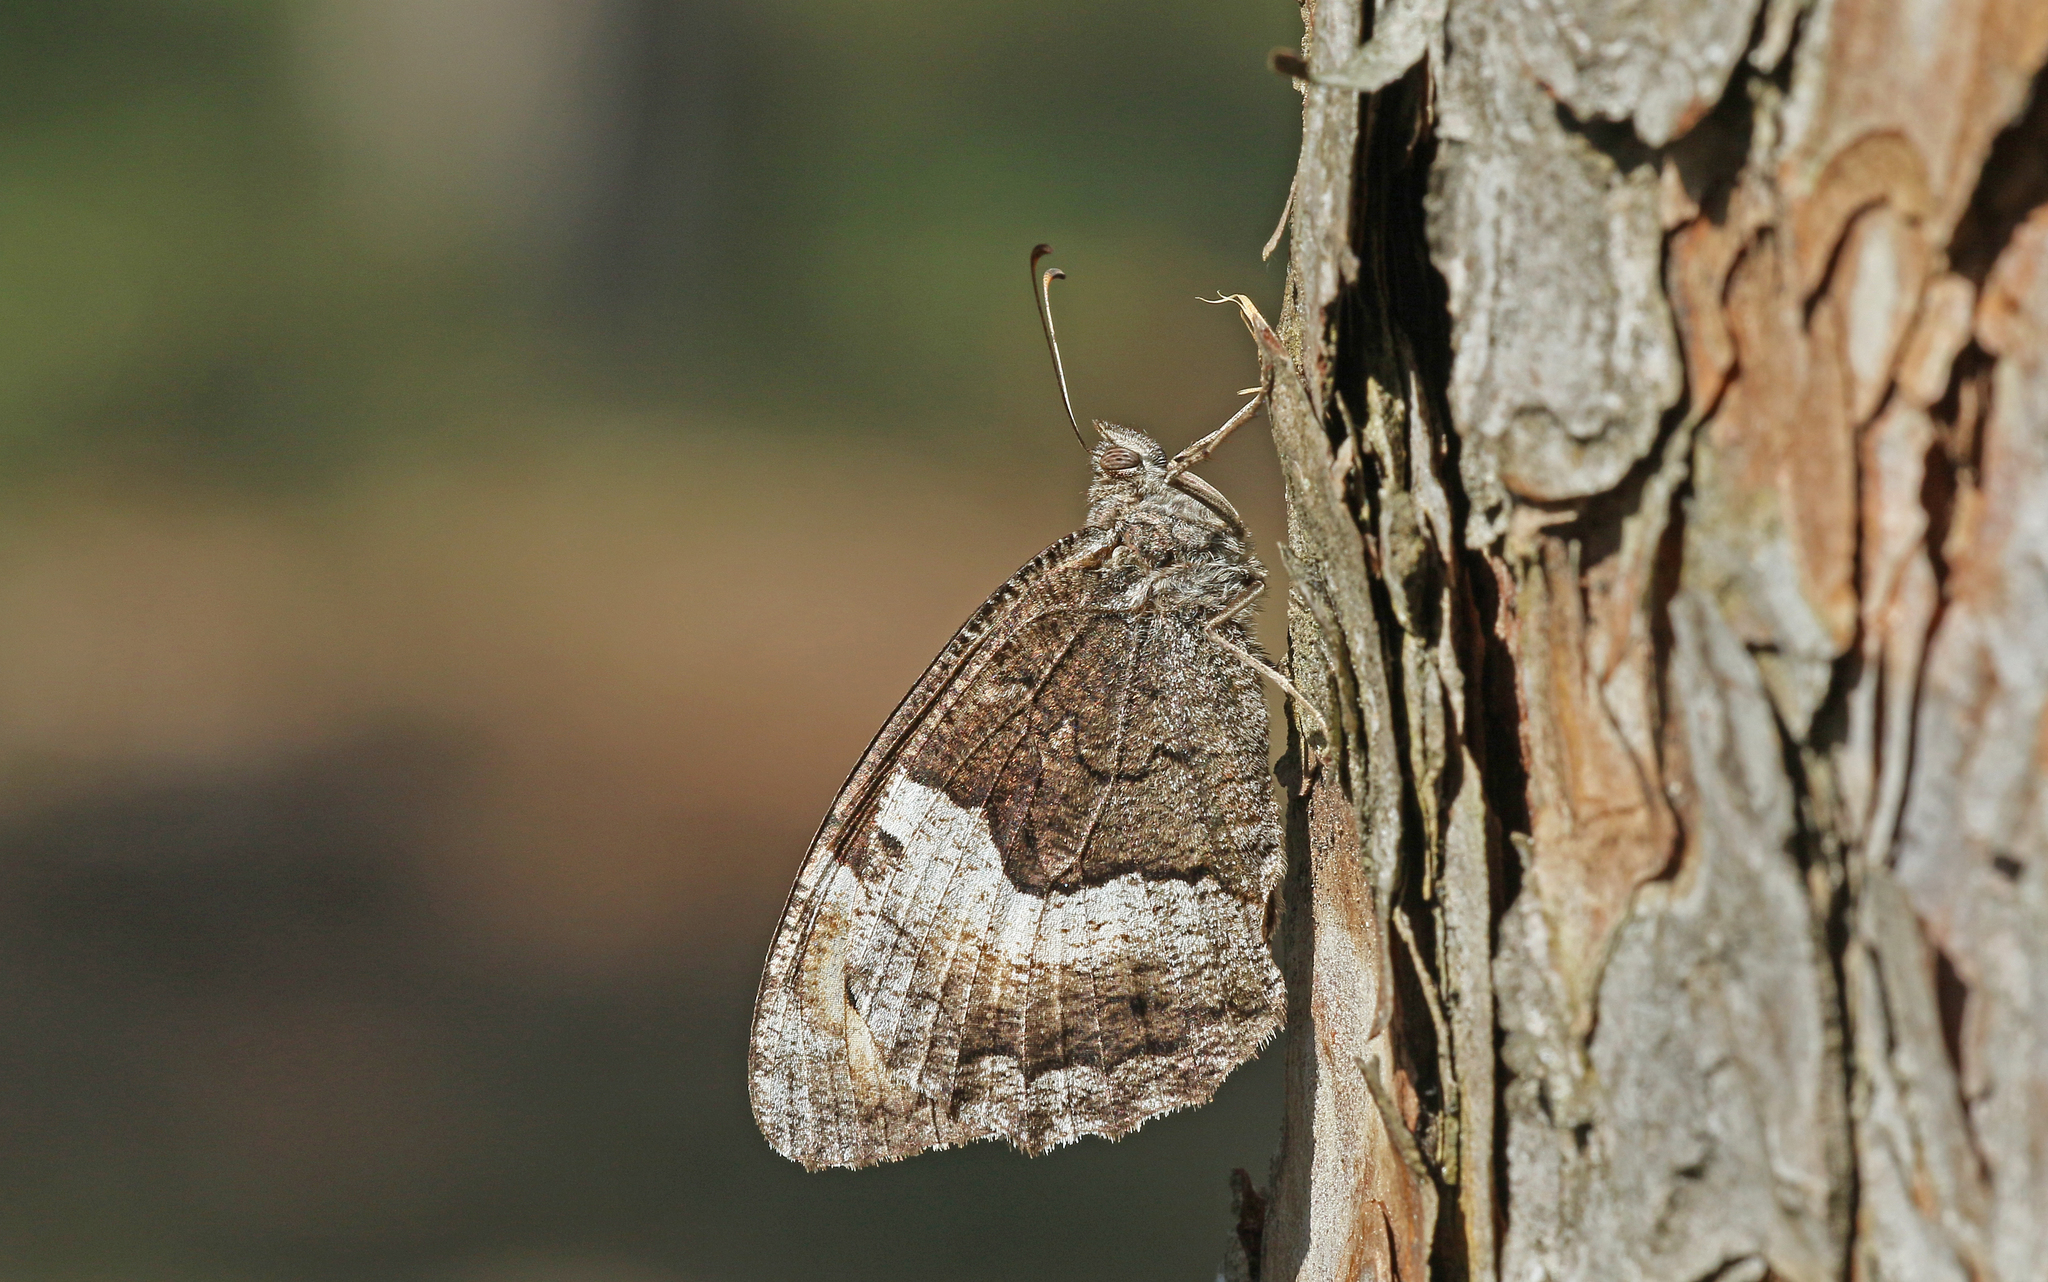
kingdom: Animalia
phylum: Arthropoda
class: Insecta
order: Lepidoptera
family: Nymphalidae
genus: Hipparchia
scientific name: Hipparchia hermione
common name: Rock grayling
